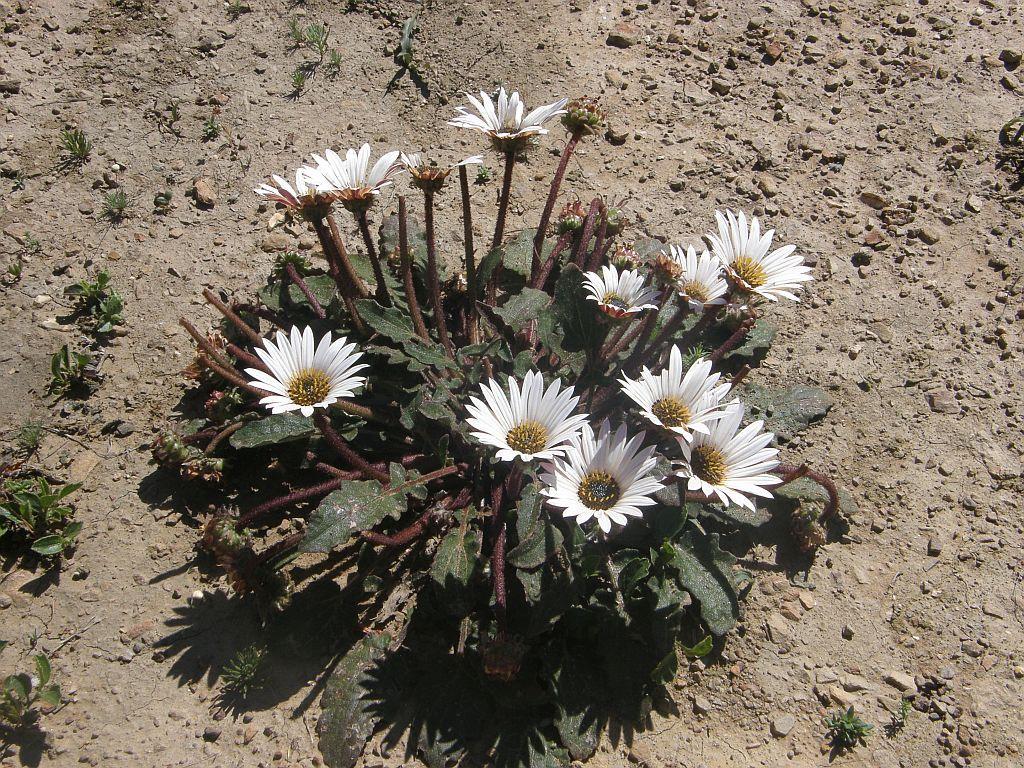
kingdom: Plantae
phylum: Tracheophyta
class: Magnoliopsida
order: Asterales
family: Asteraceae
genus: Arctotis
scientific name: Arctotis acaulis
